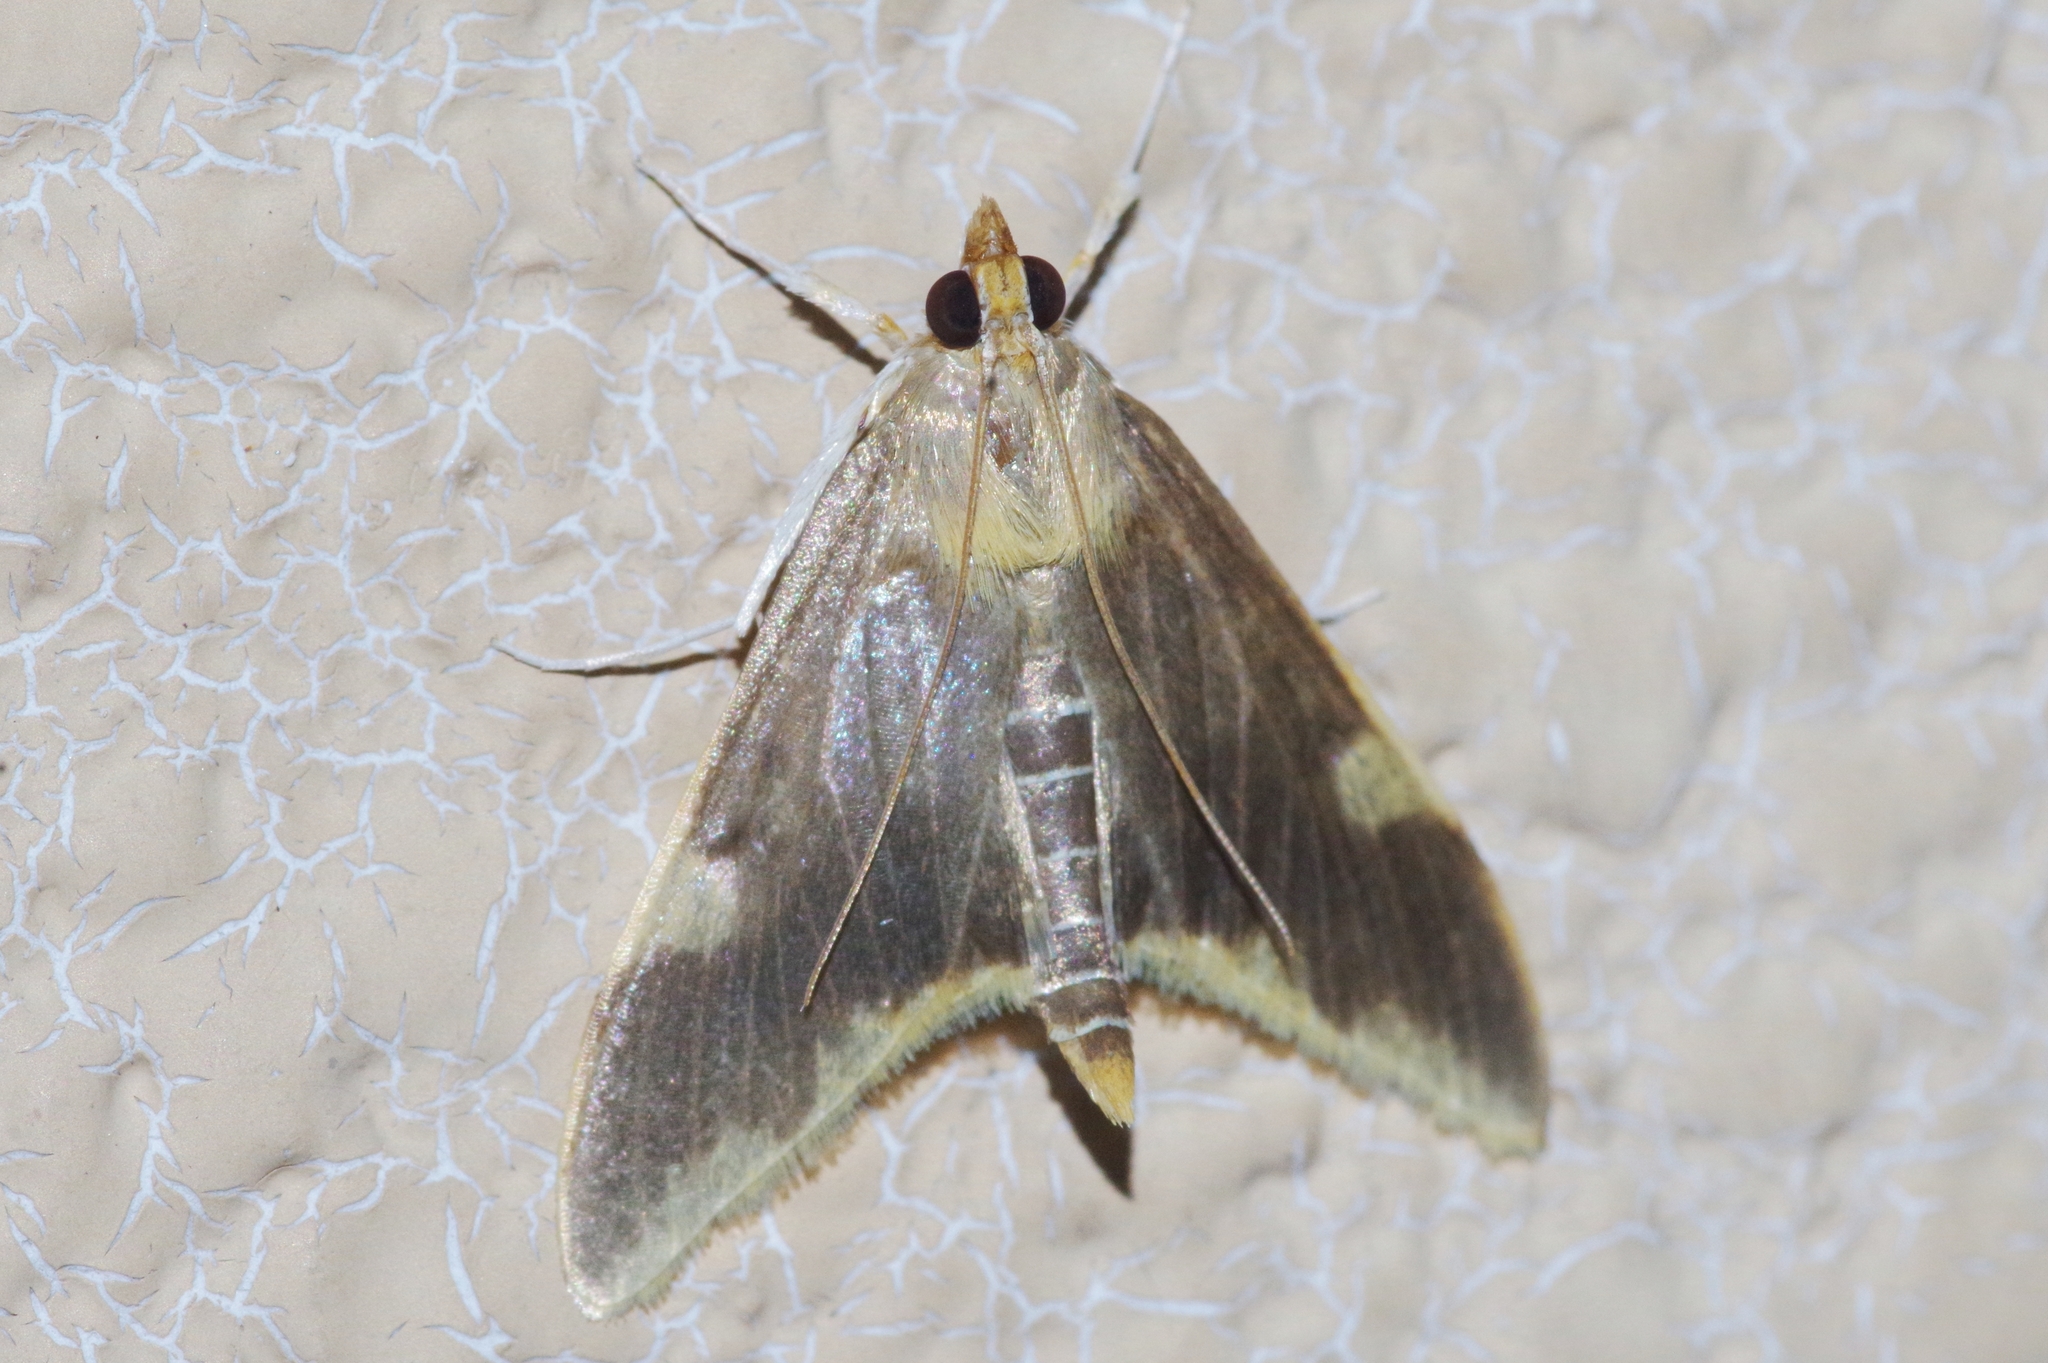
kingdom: Animalia
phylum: Arthropoda
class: Insecta
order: Lepidoptera
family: Crambidae
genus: Crocidophora
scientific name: Crocidophora butleri
